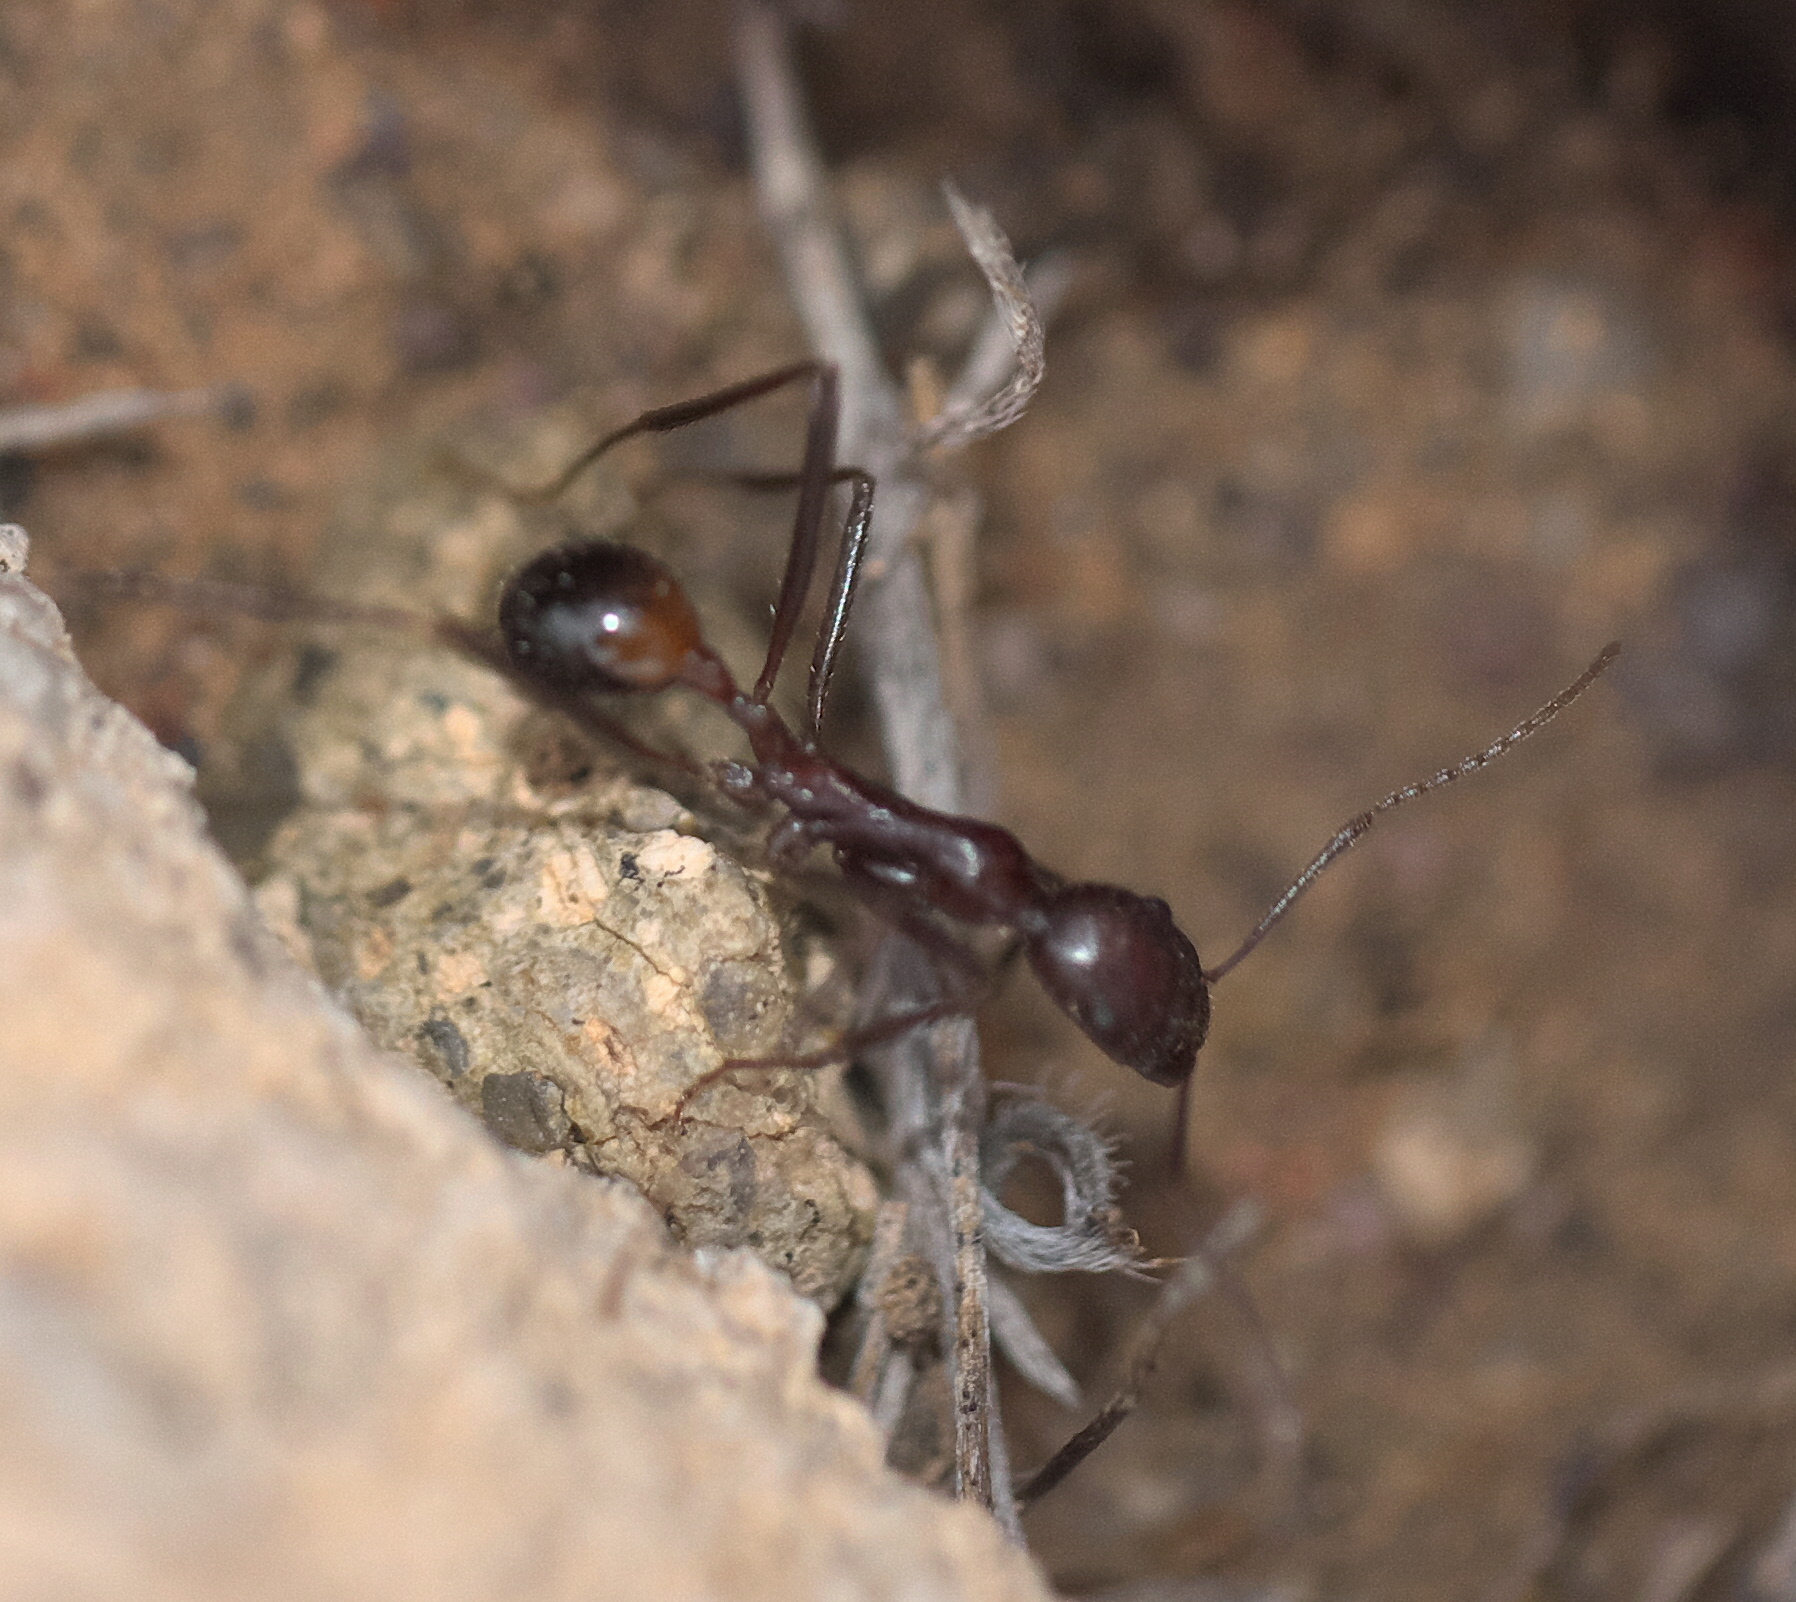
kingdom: Animalia
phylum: Arthropoda
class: Insecta
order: Hymenoptera
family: Formicidae
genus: Novomessor
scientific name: Novomessor cockerelli
